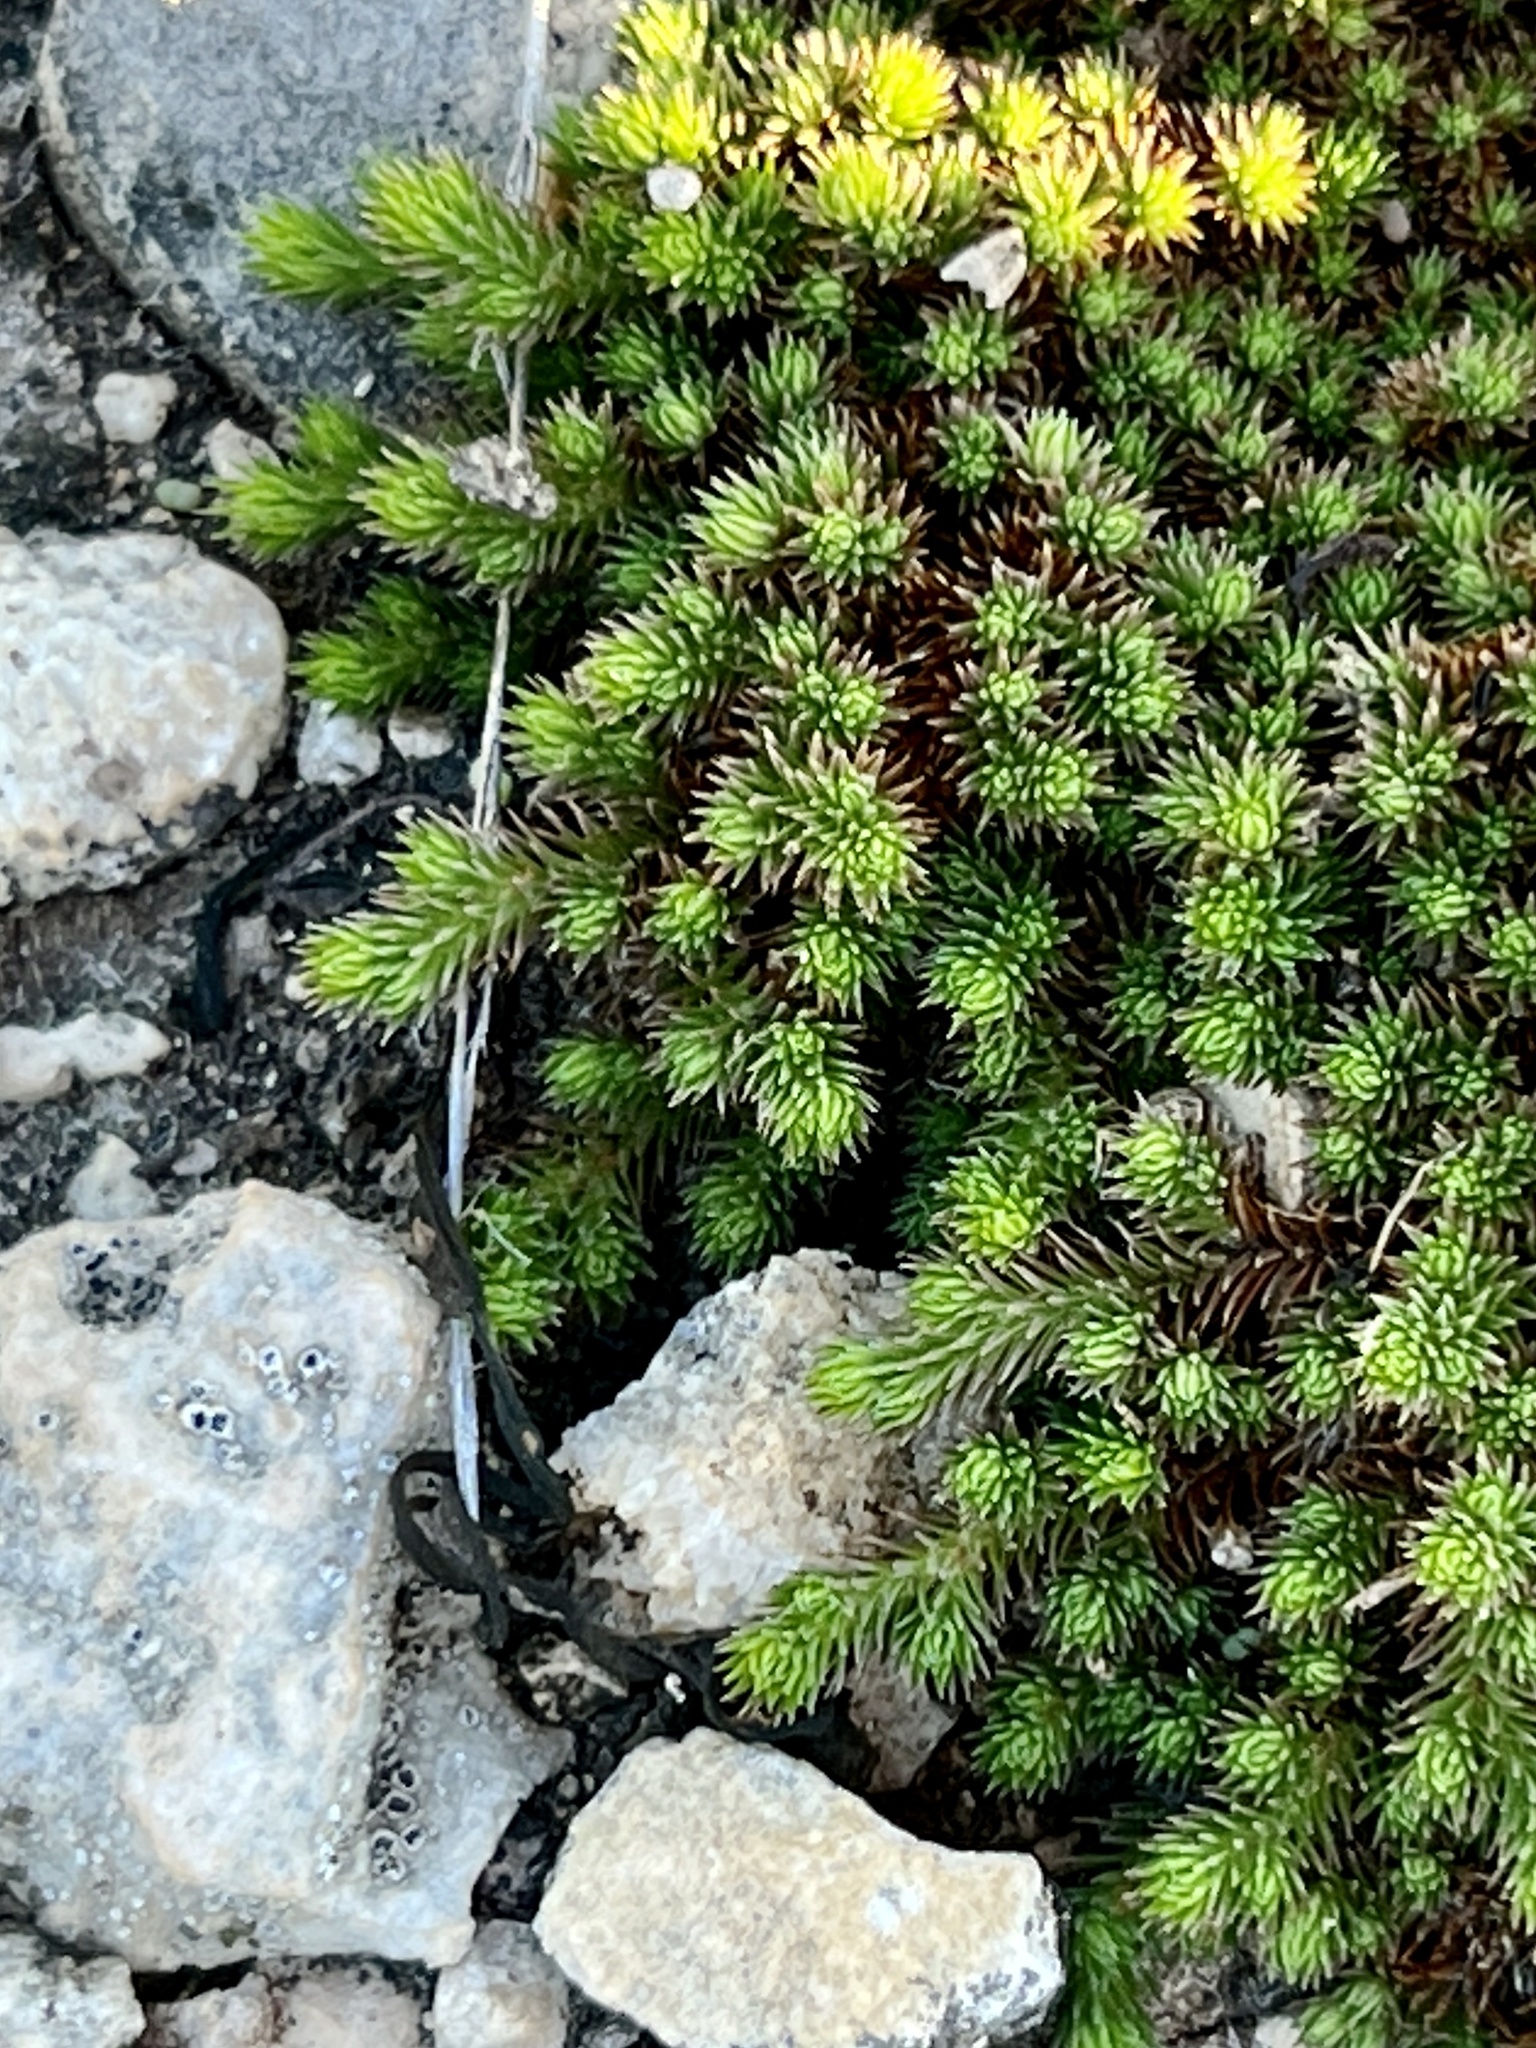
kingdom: Plantae
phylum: Tracheophyta
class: Lycopodiopsida
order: Selaginellales
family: Selaginellaceae
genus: Selaginella
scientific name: Selaginella wrightii
